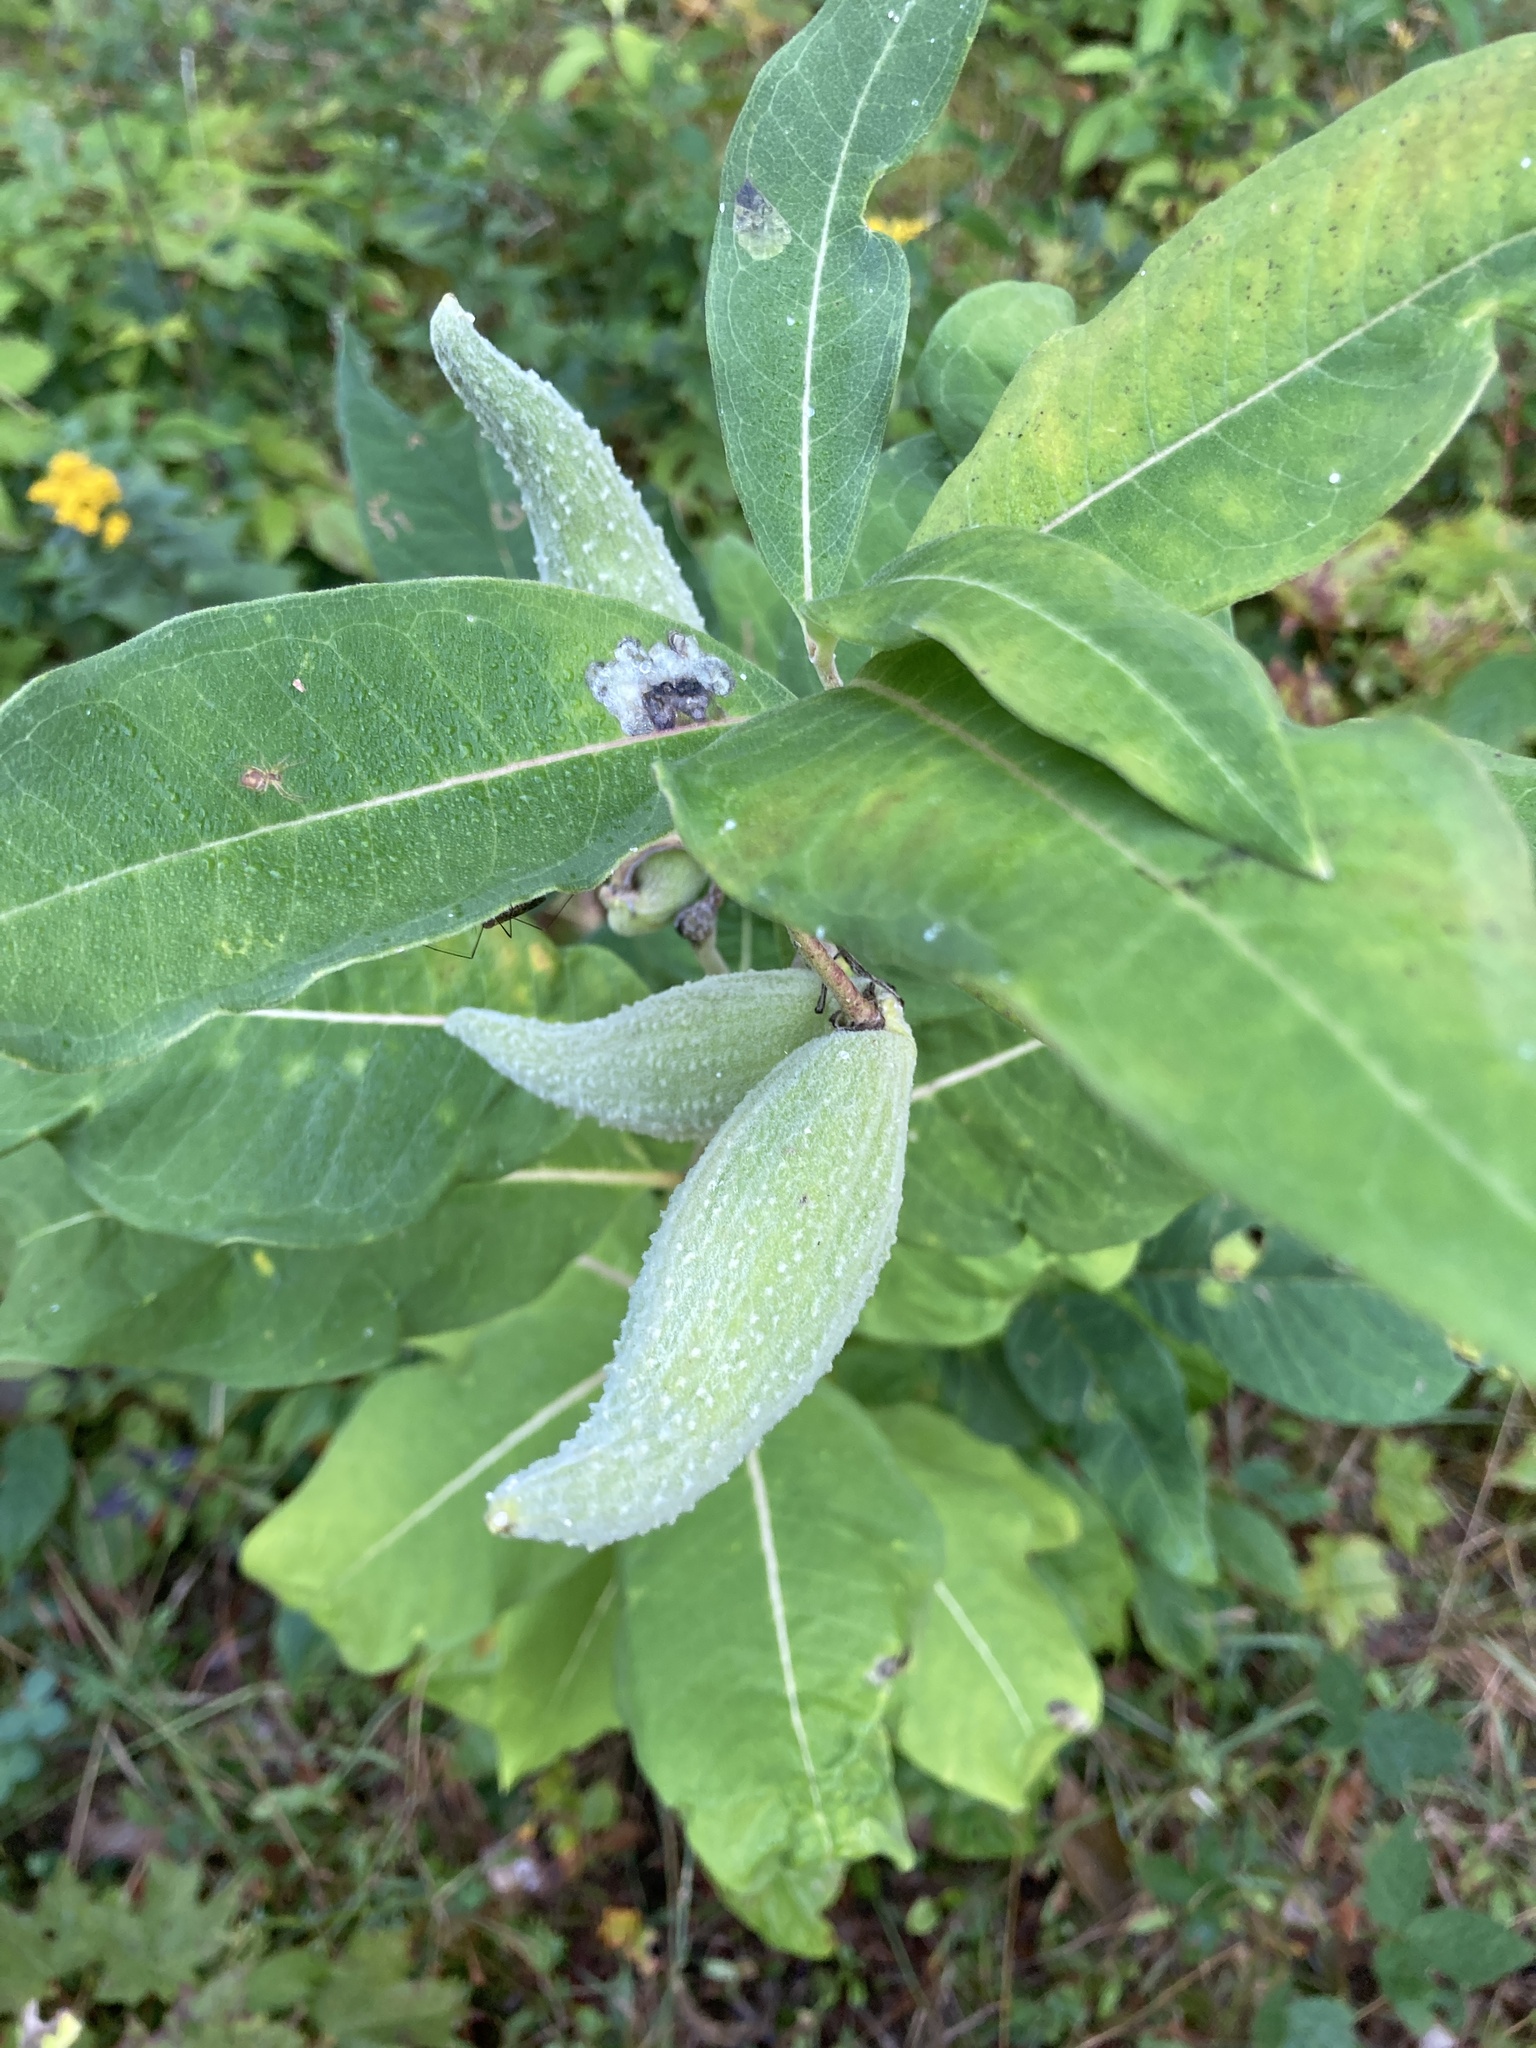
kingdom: Plantae
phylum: Tracheophyta
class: Magnoliopsida
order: Gentianales
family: Apocynaceae
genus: Asclepias
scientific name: Asclepias syriaca
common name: Common milkweed
